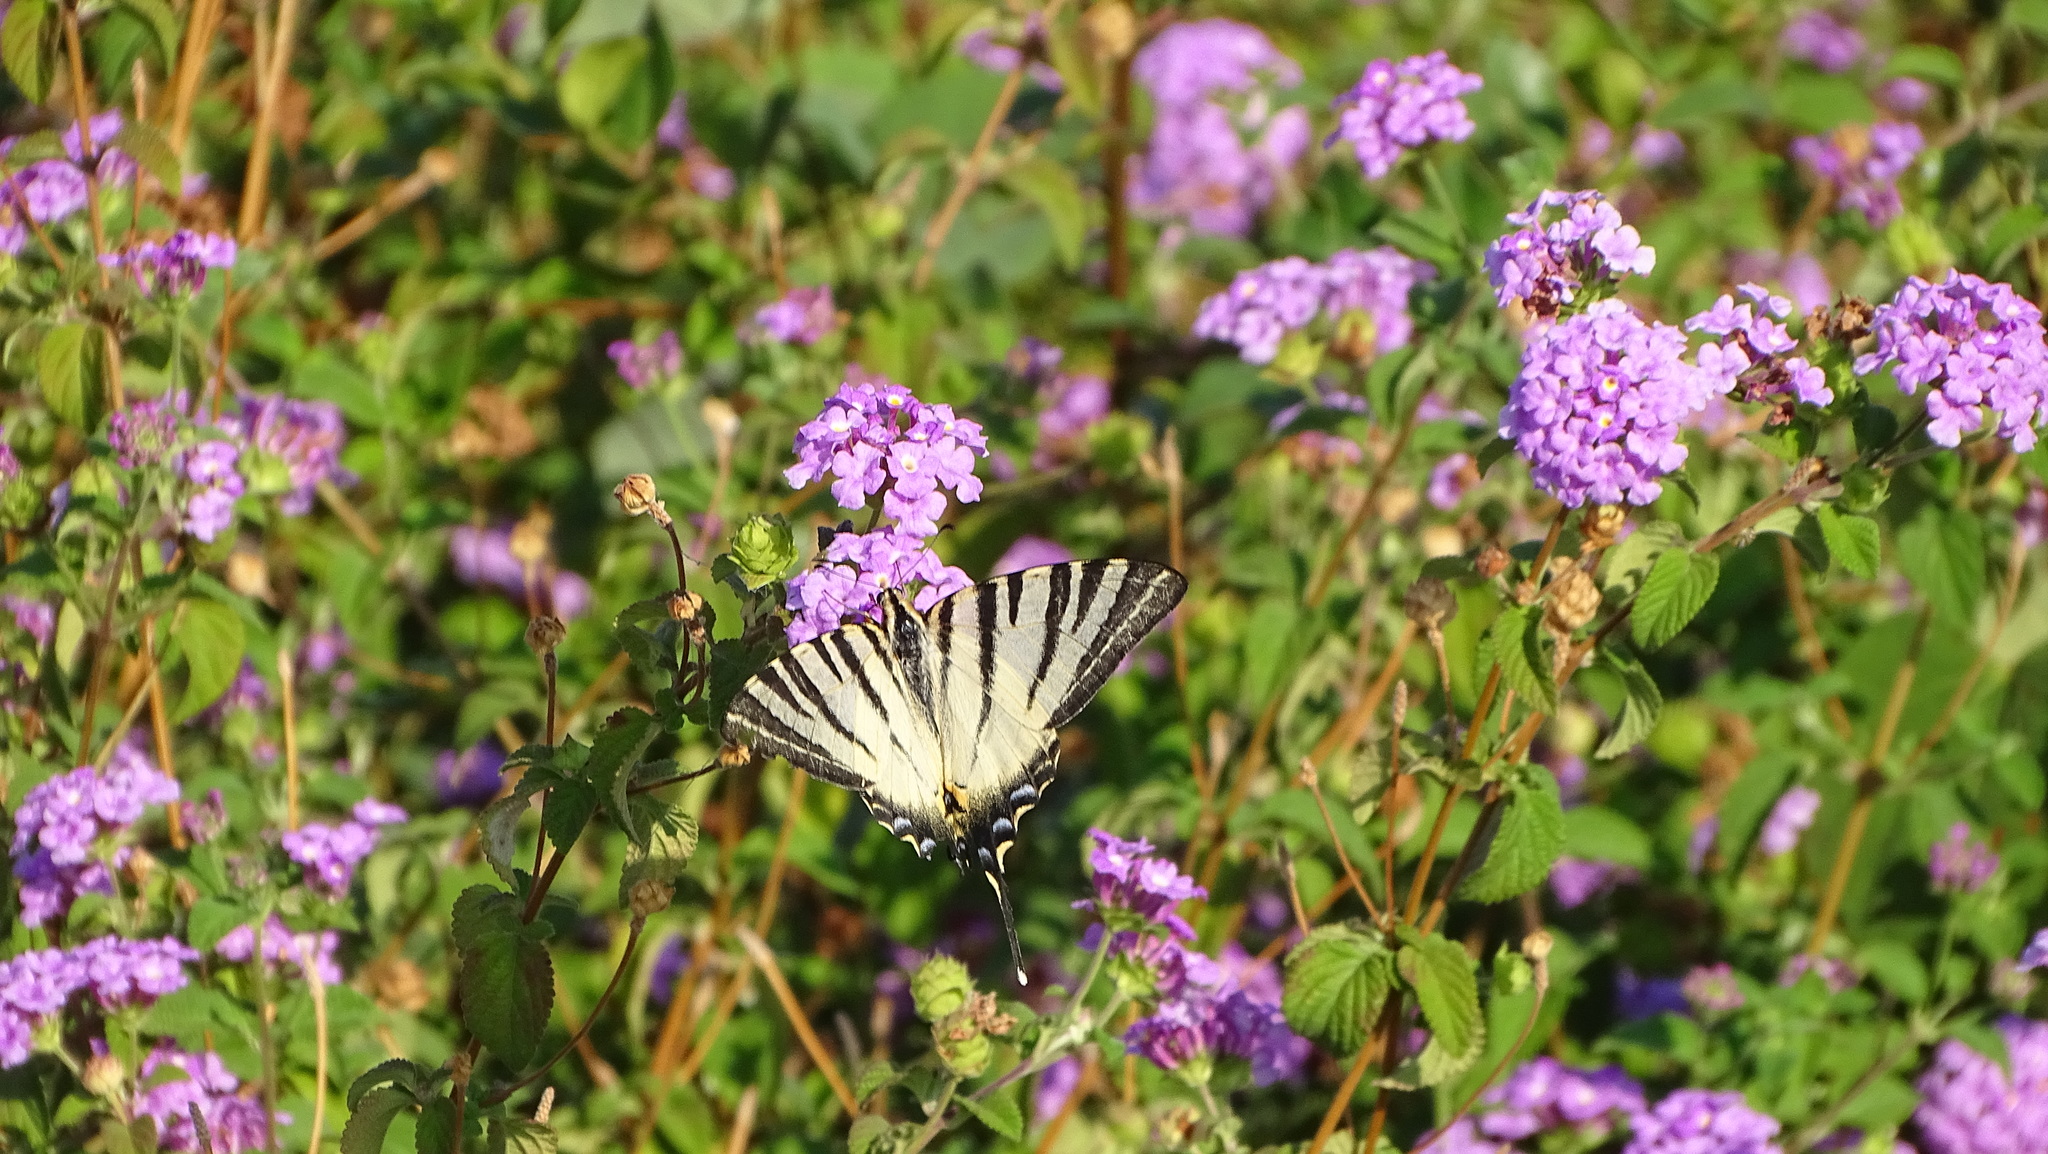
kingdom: Animalia
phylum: Arthropoda
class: Insecta
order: Lepidoptera
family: Papilionidae
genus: Iphiclides
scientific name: Iphiclides podalirius
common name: Scarce swallowtail
